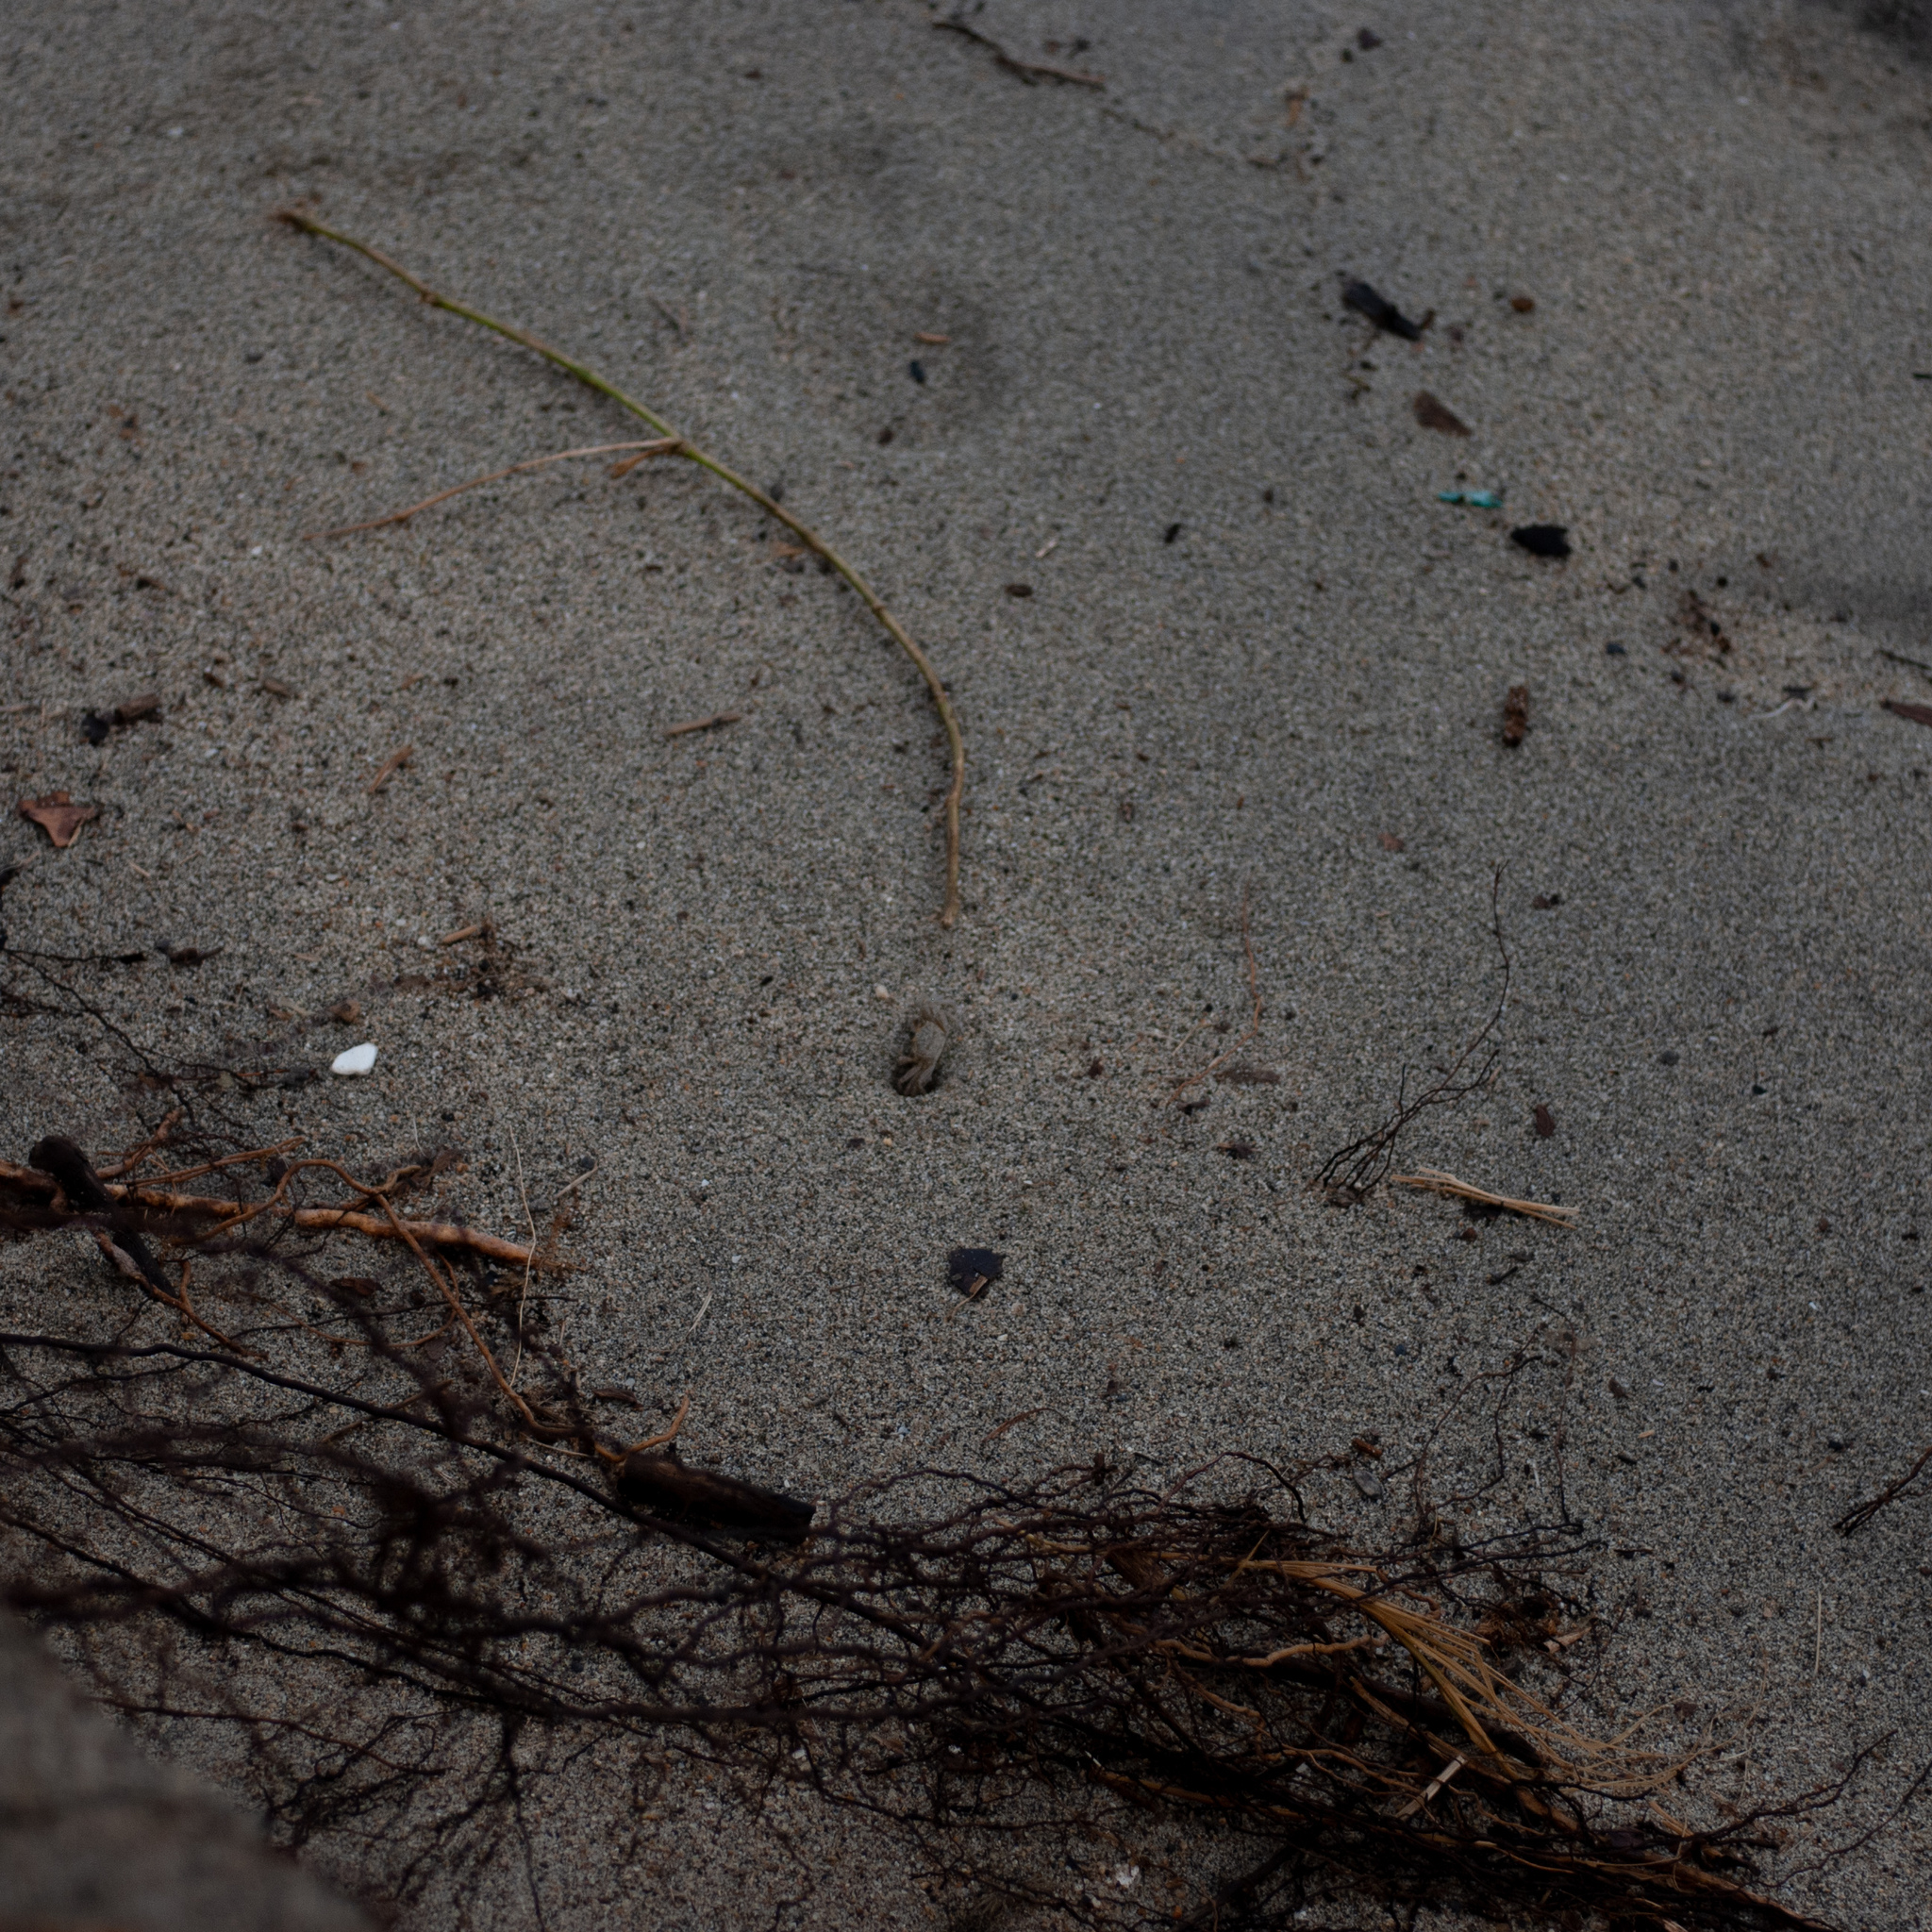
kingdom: Animalia
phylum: Arthropoda
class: Malacostraca
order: Decapoda
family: Ocypodidae
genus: Ocypode
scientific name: Ocypode quadrata
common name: Ghost crab
